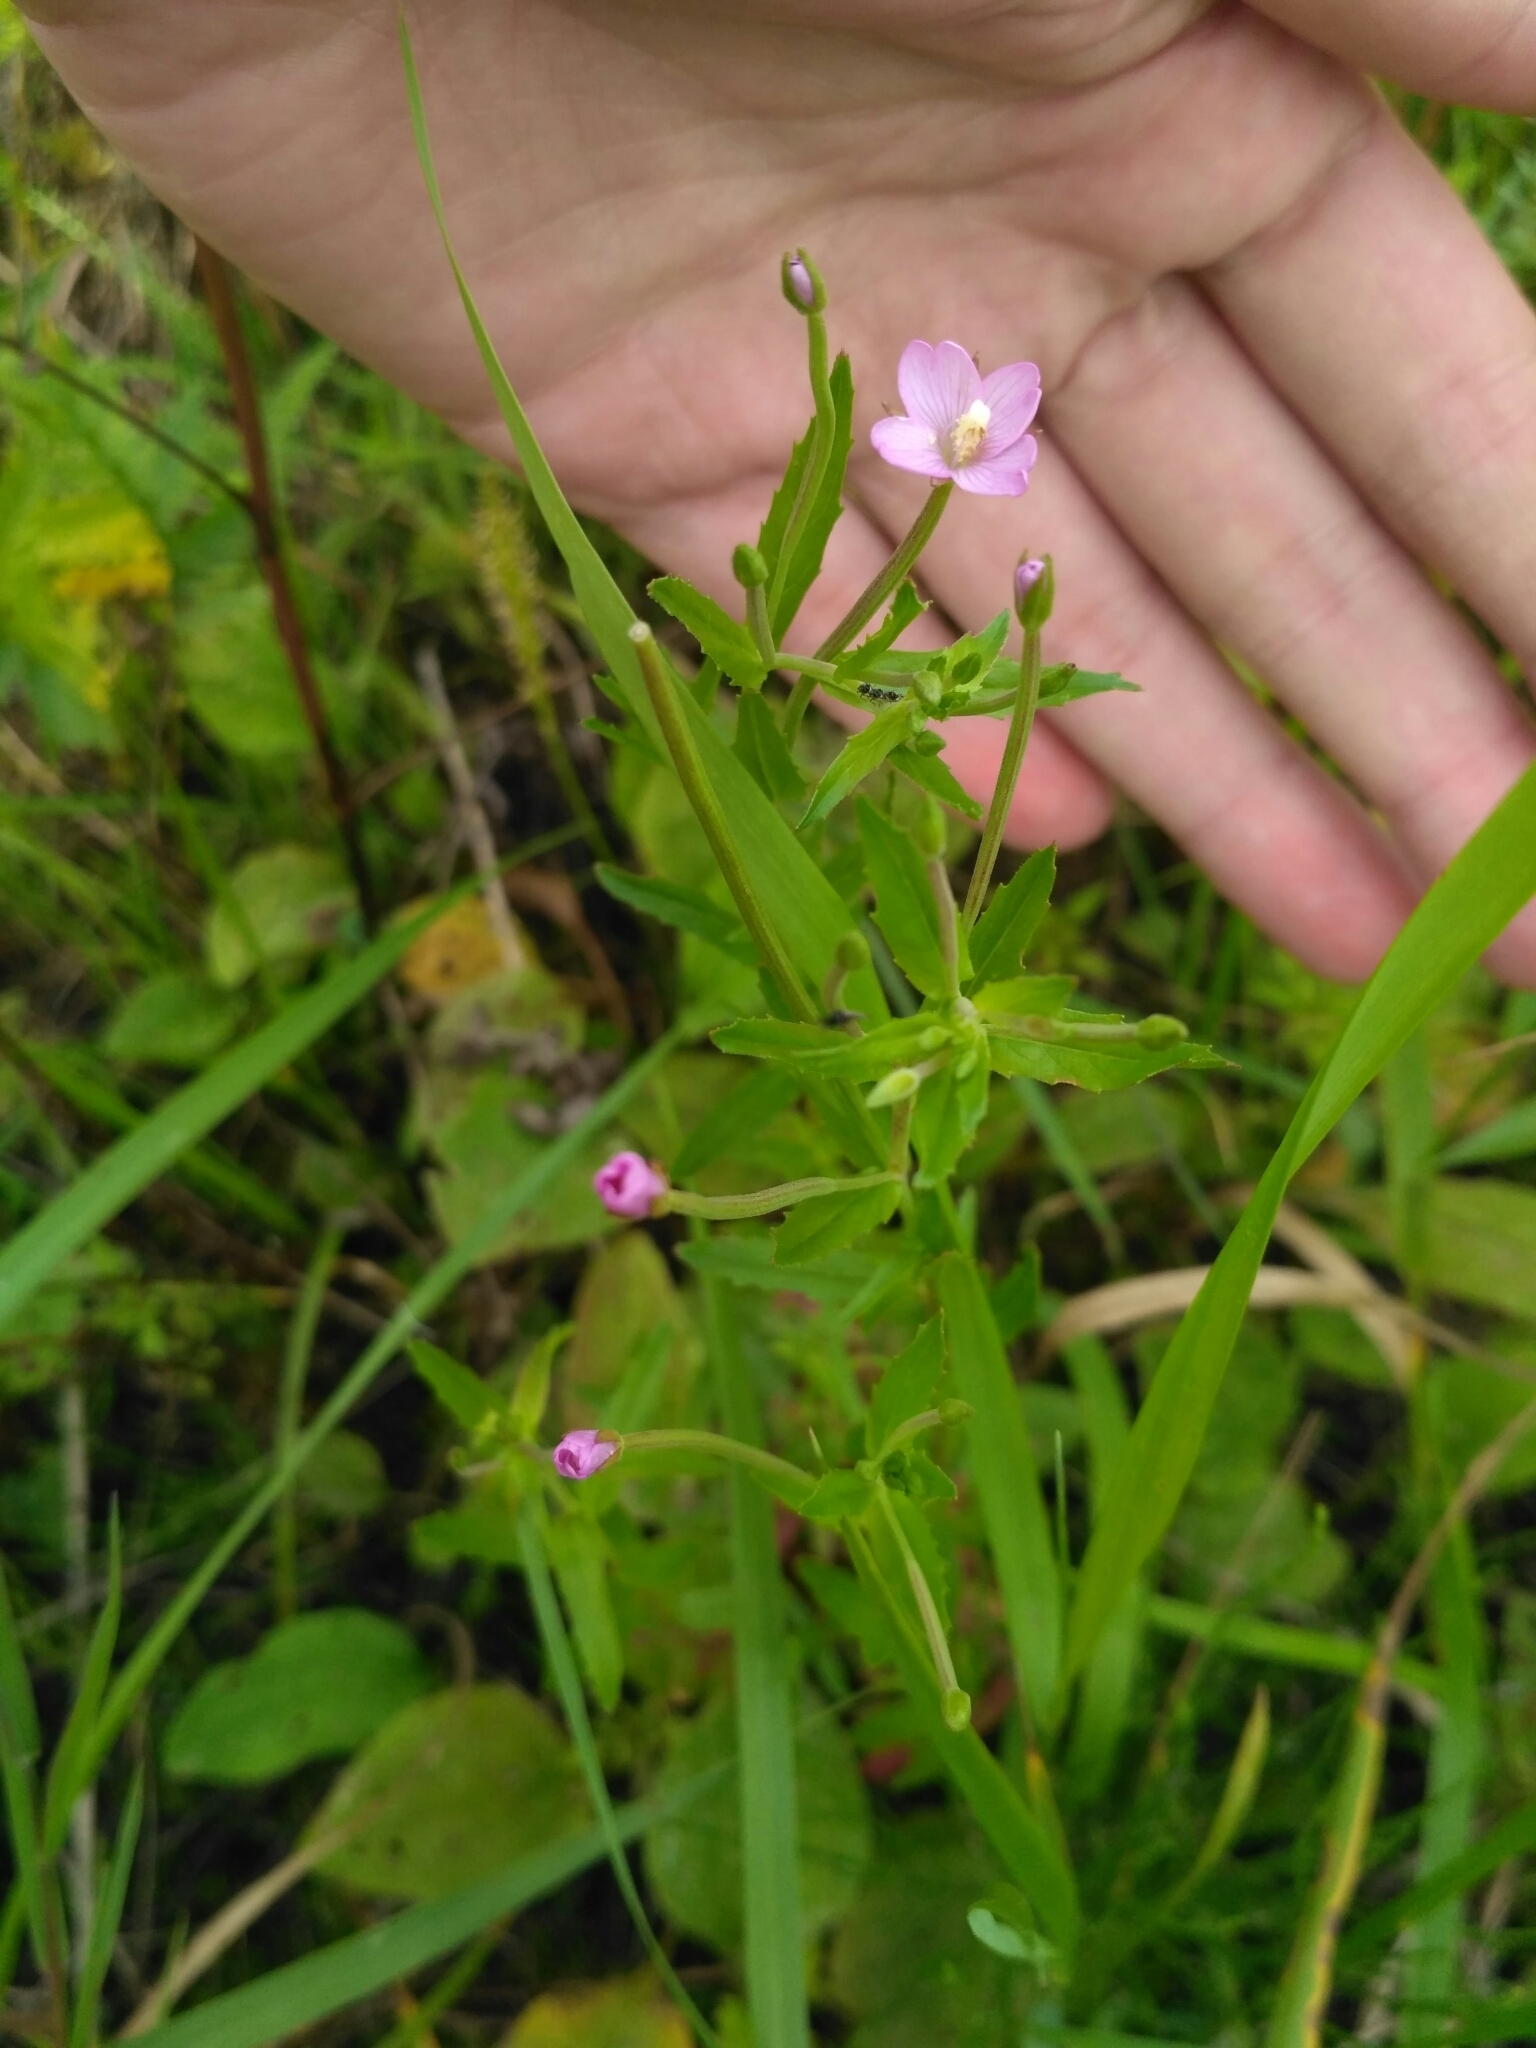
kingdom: Plantae
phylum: Tracheophyta
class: Magnoliopsida
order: Myrtales
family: Onagraceae
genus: Epilobium
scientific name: Epilobium ciliatum
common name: American willowherb
